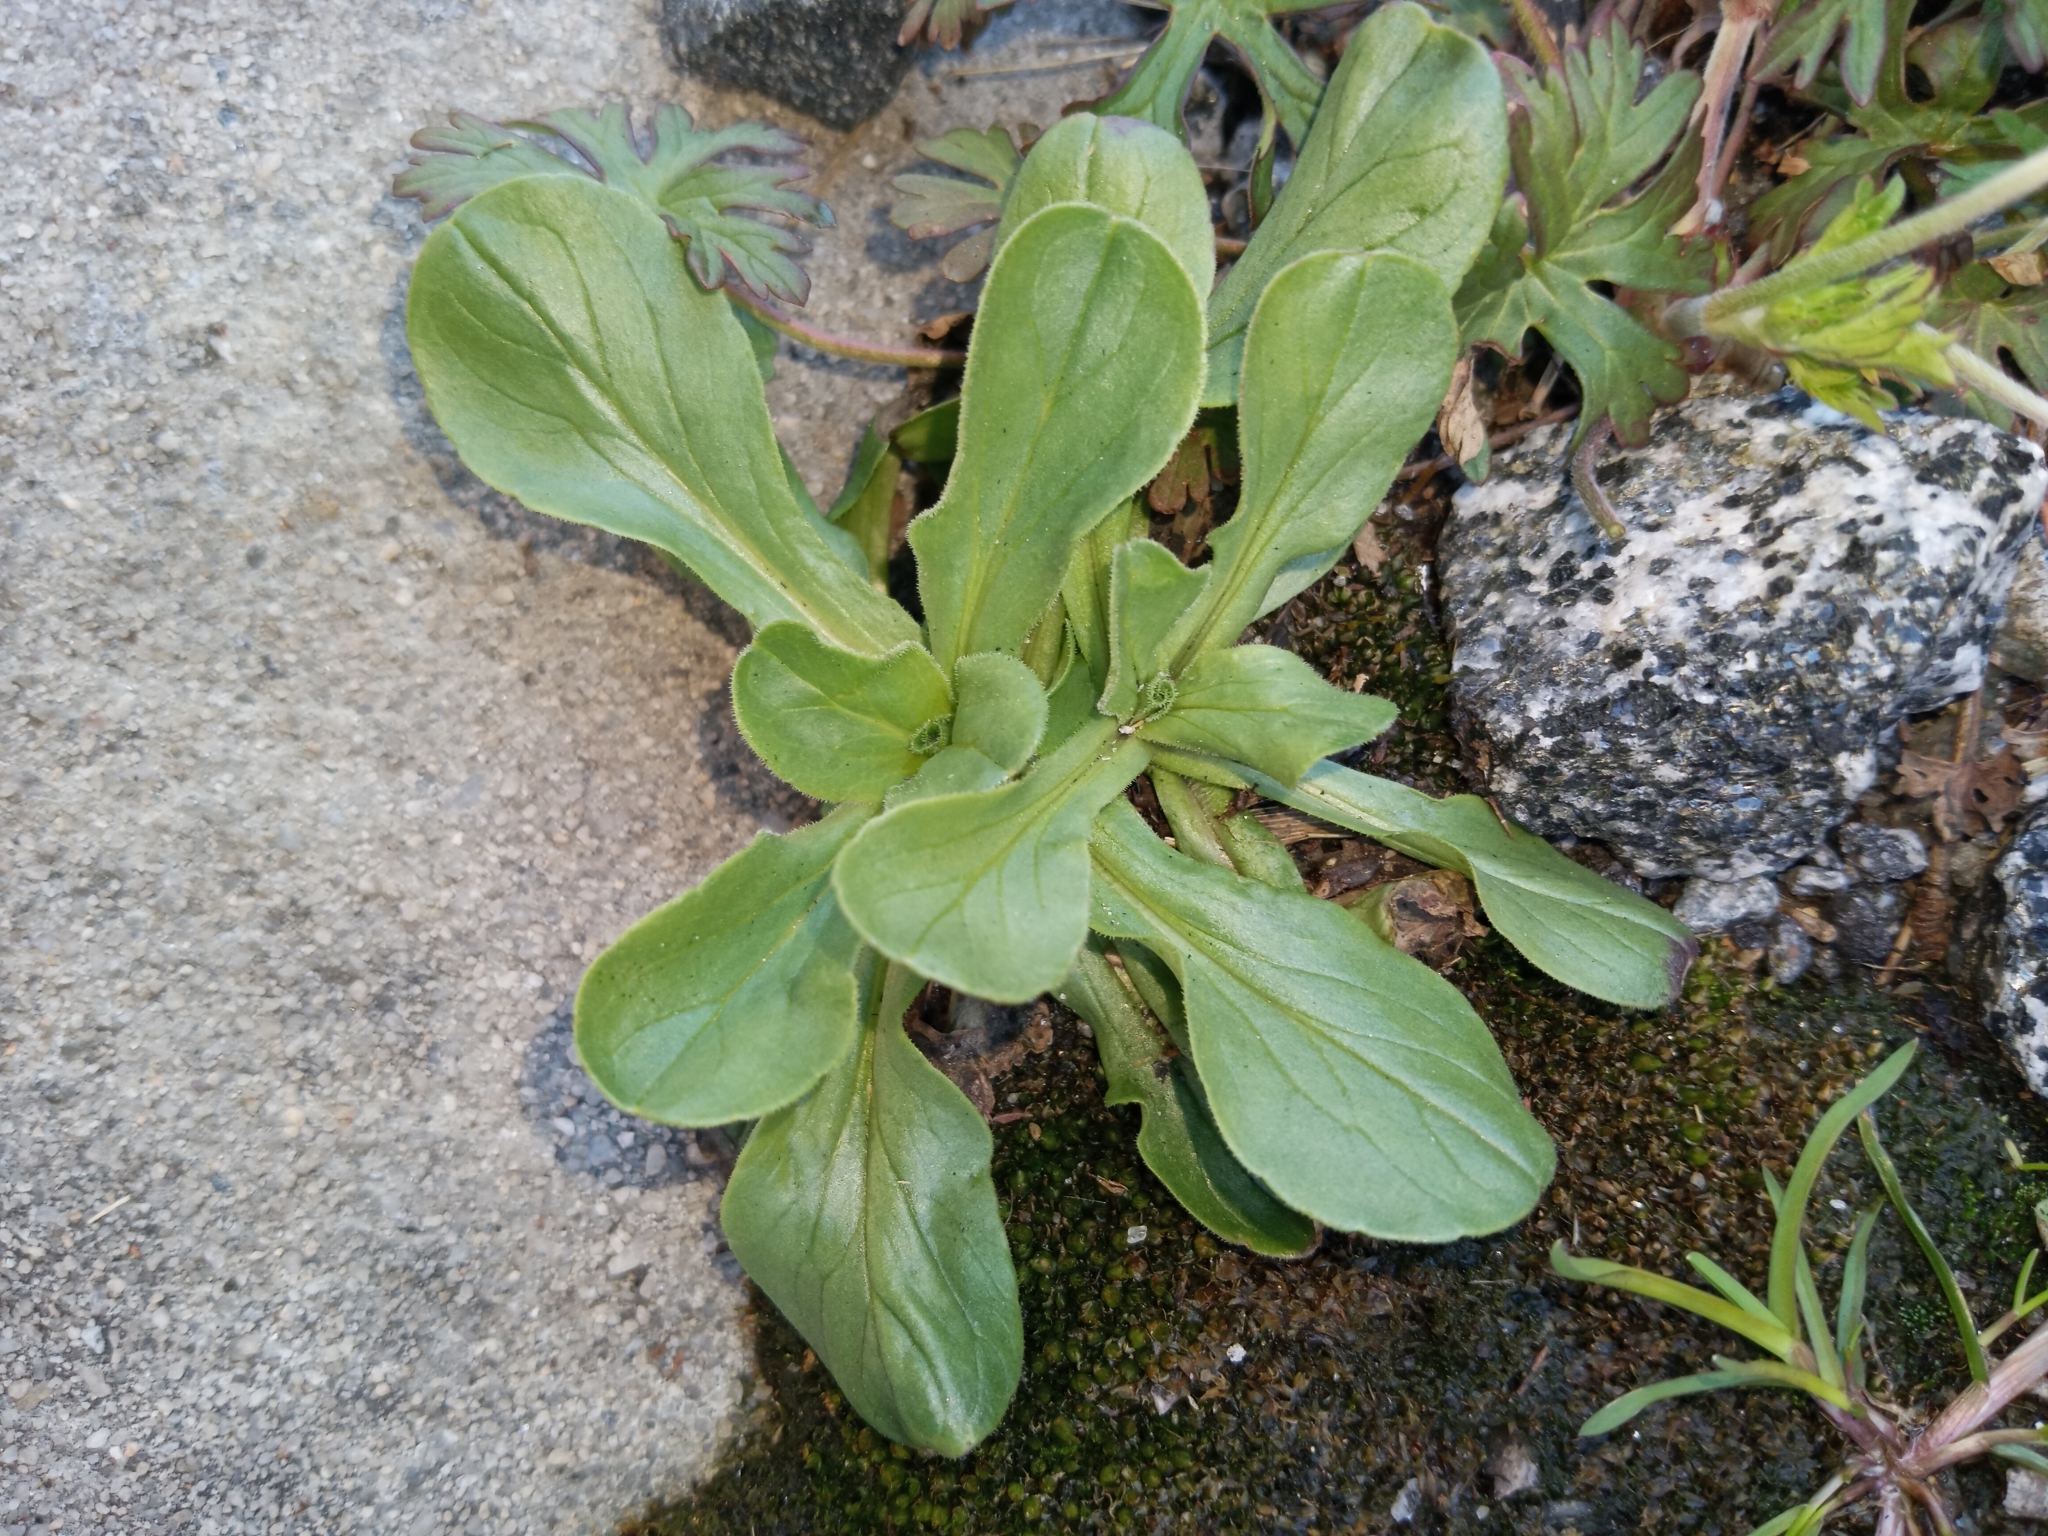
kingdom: Plantae
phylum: Tracheophyta
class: Magnoliopsida
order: Dipsacales
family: Caprifoliaceae
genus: Valerianella
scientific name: Valerianella locusta
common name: Common cornsalad
